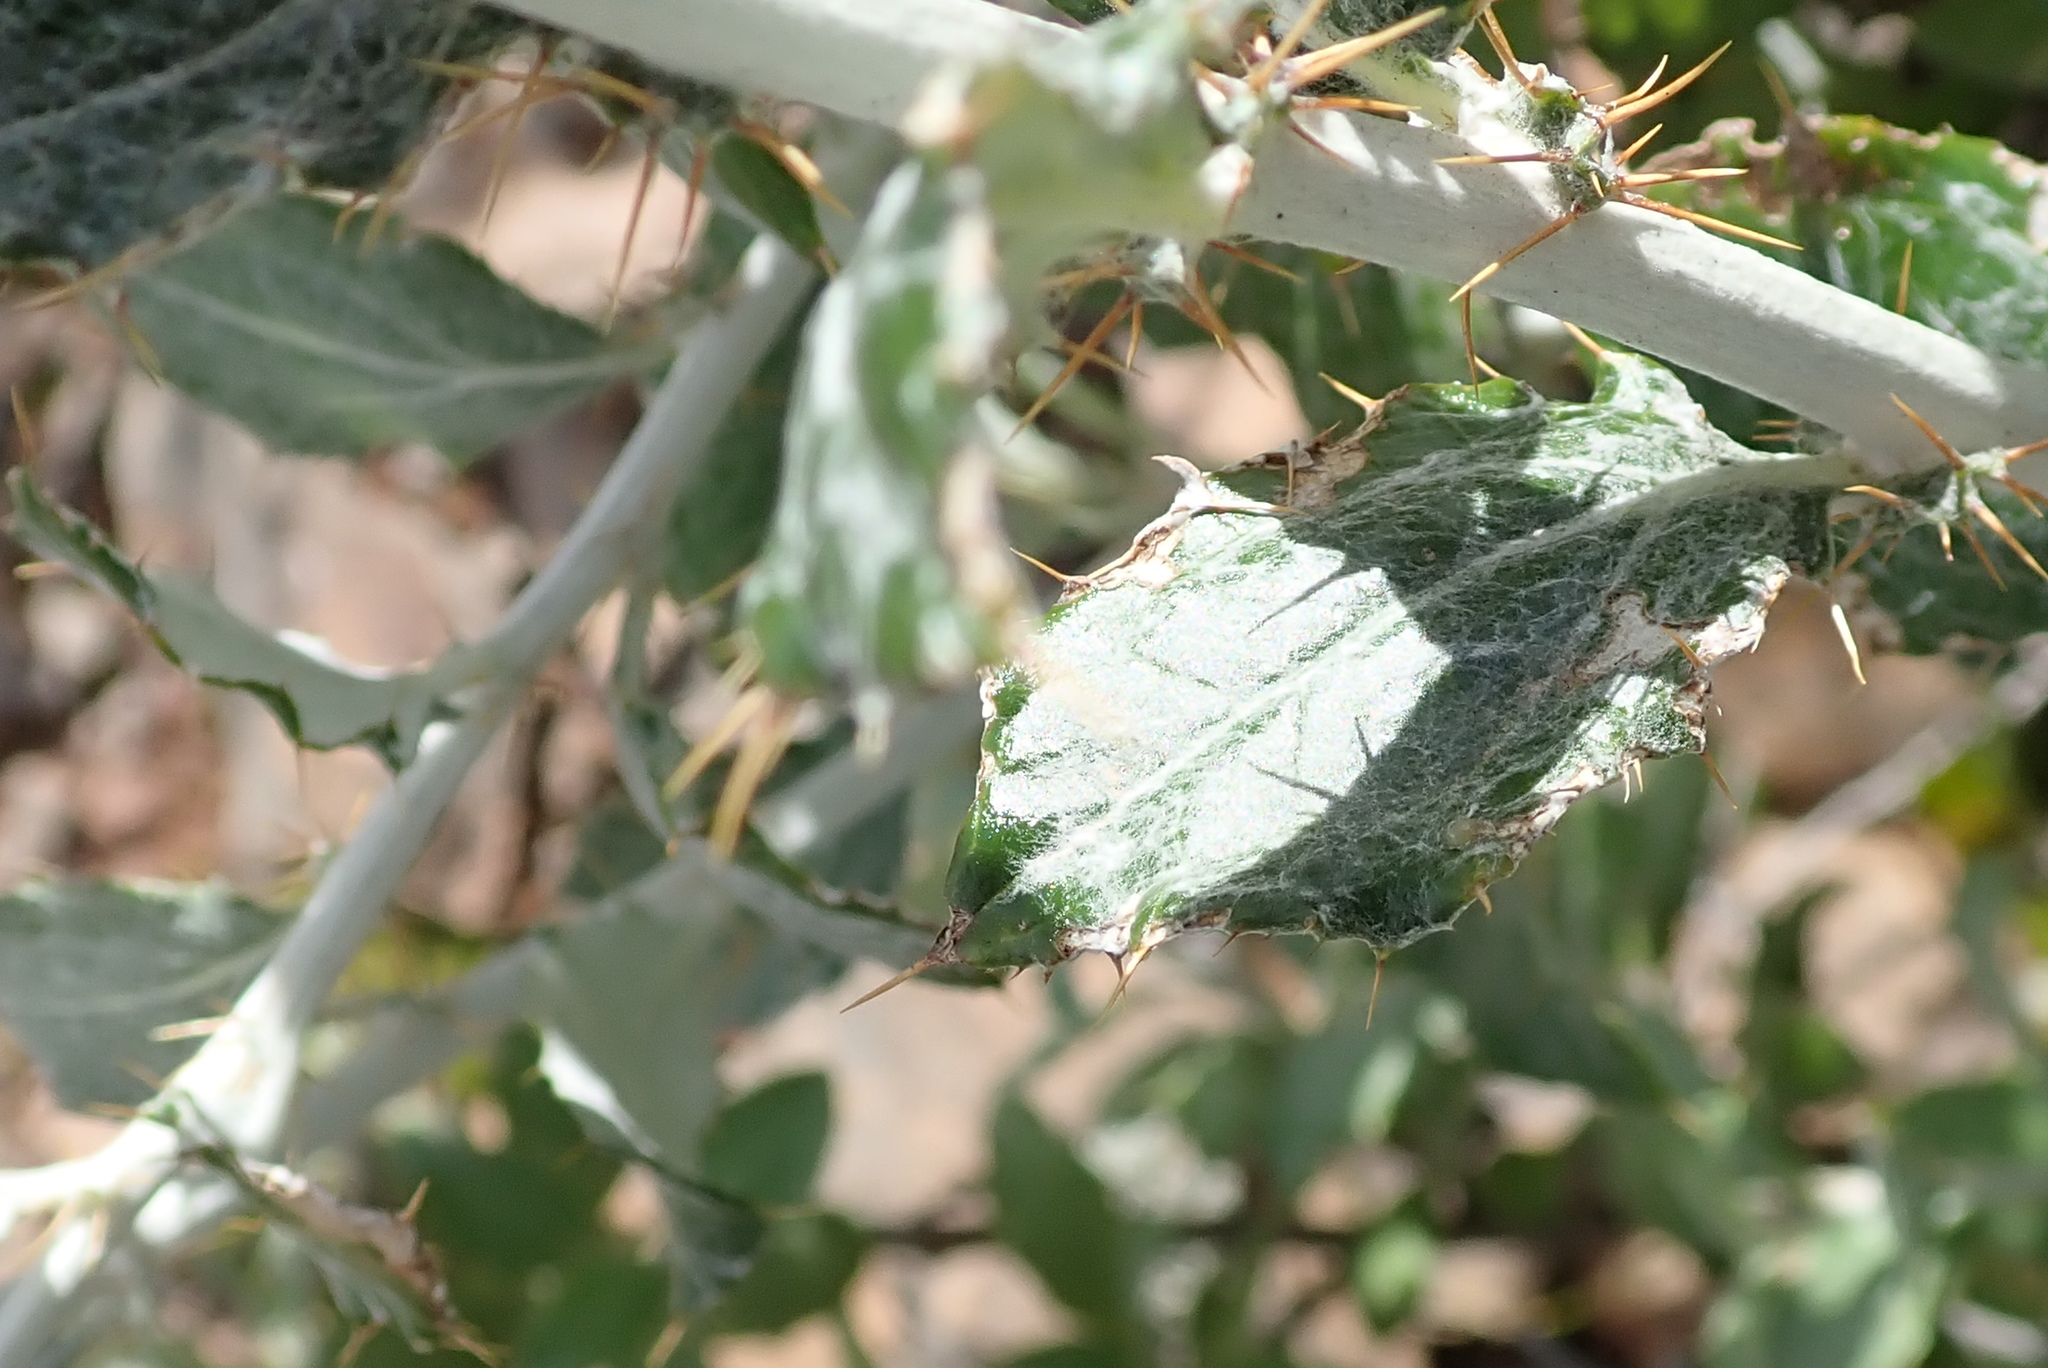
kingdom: Plantae
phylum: Tracheophyta
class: Magnoliopsida
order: Asterales
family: Asteraceae
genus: Berkheya
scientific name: Berkheya fruticosa
